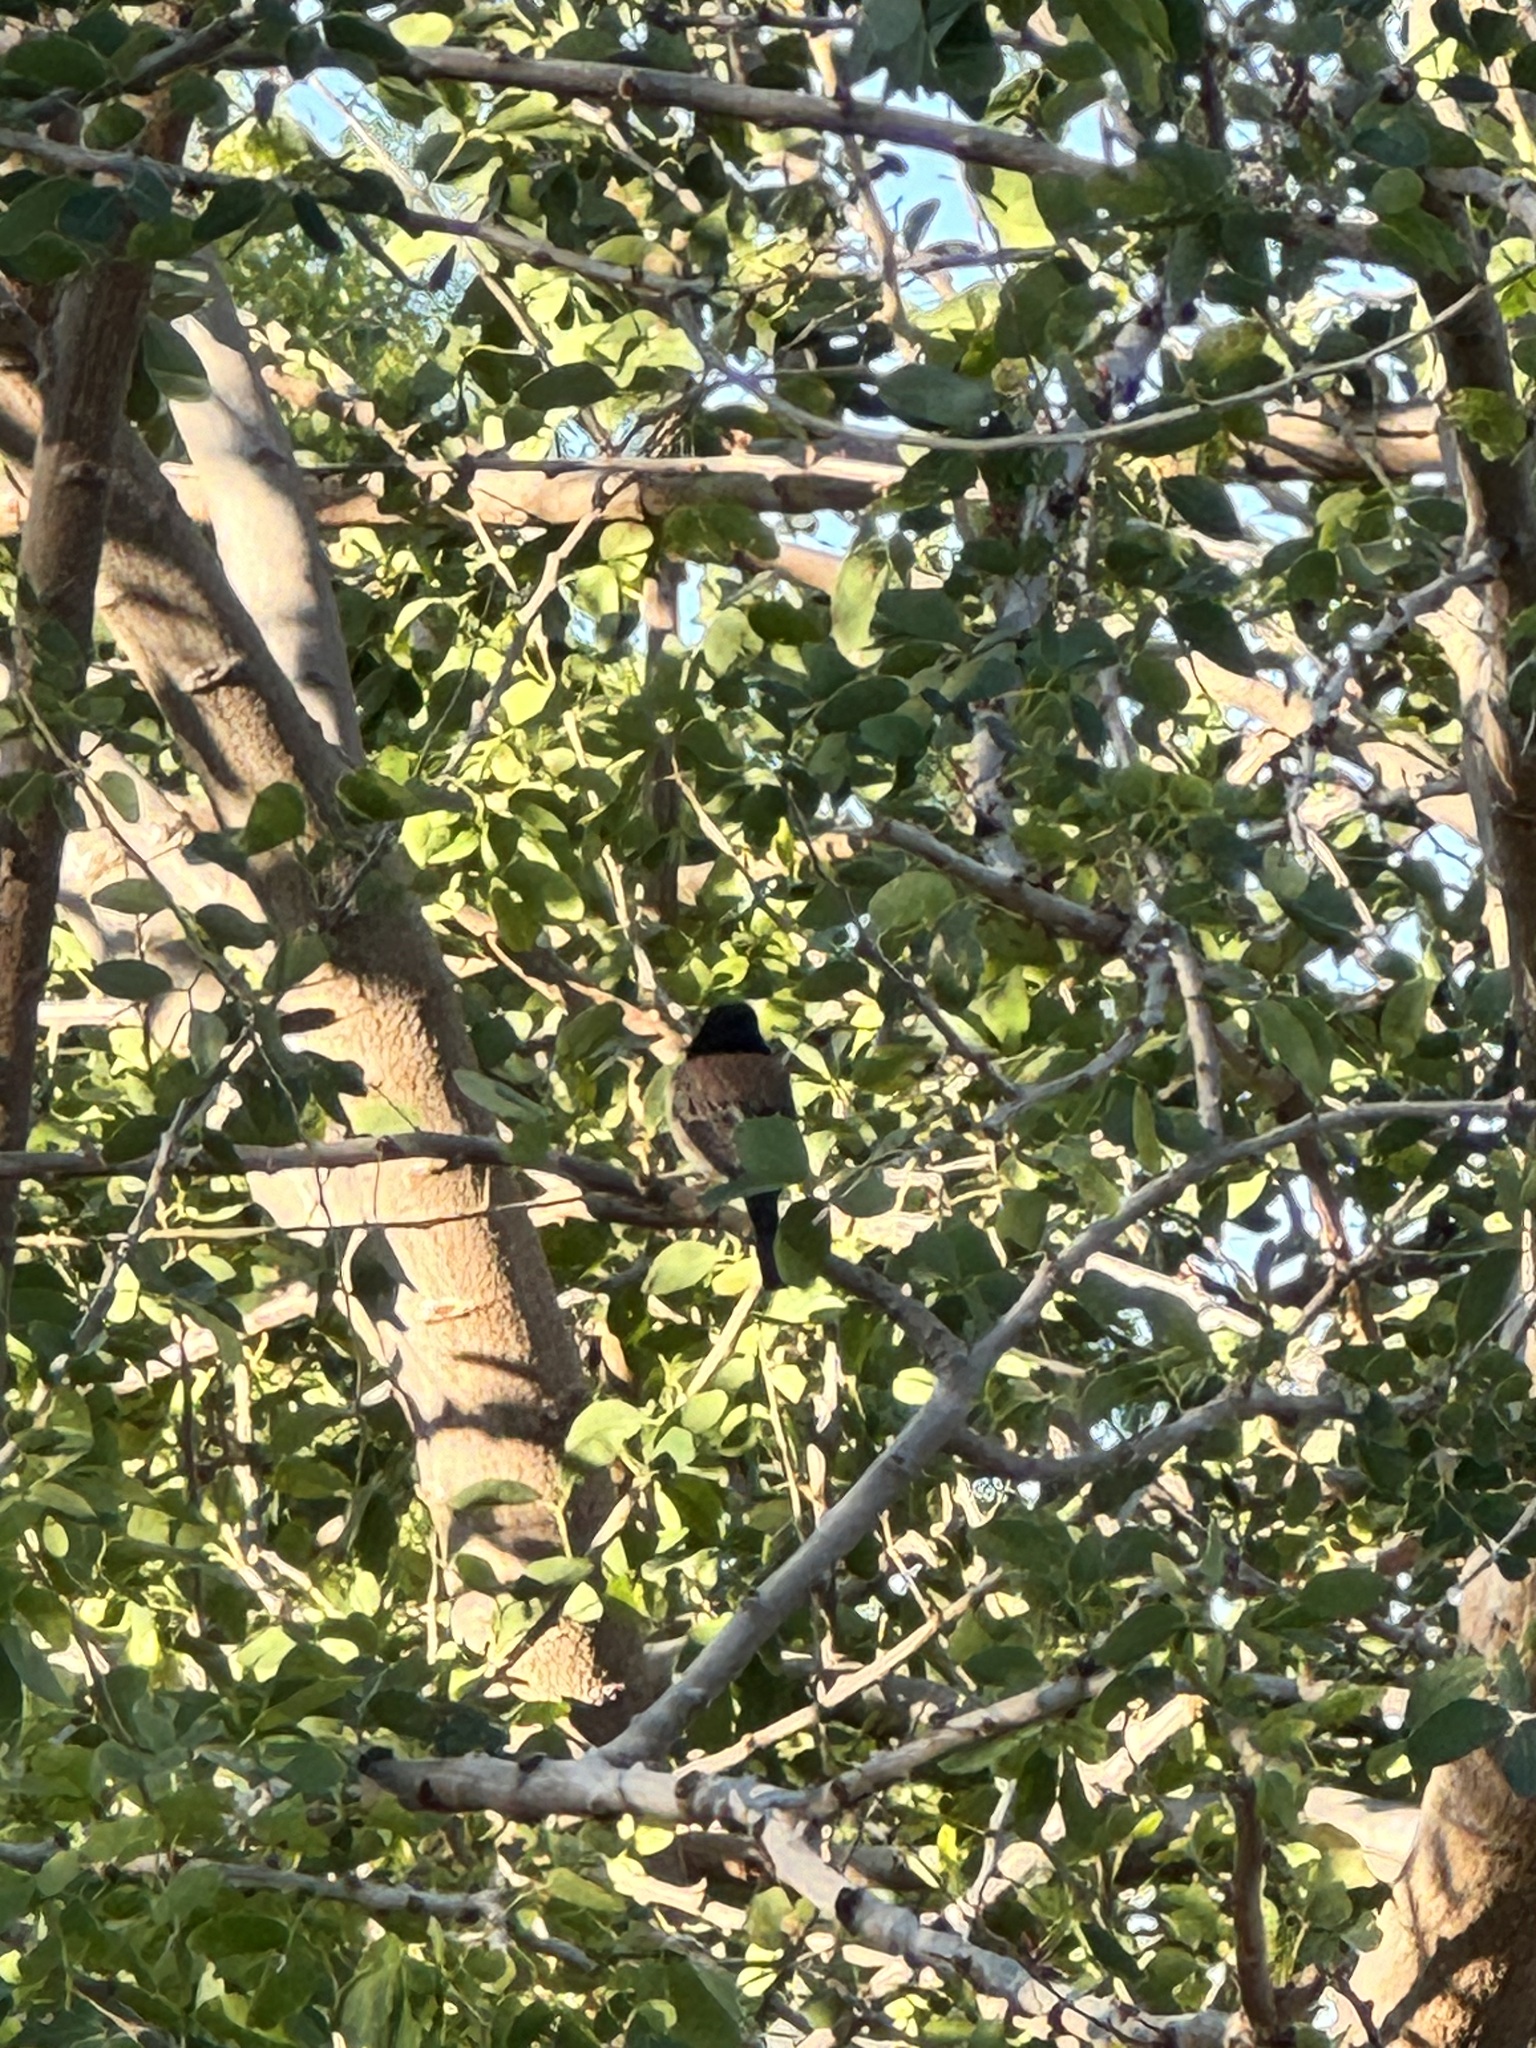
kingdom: Animalia
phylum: Chordata
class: Aves
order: Passeriformes
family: Passerellidae
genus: Junco
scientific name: Junco hyemalis
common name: Dark-eyed junco
